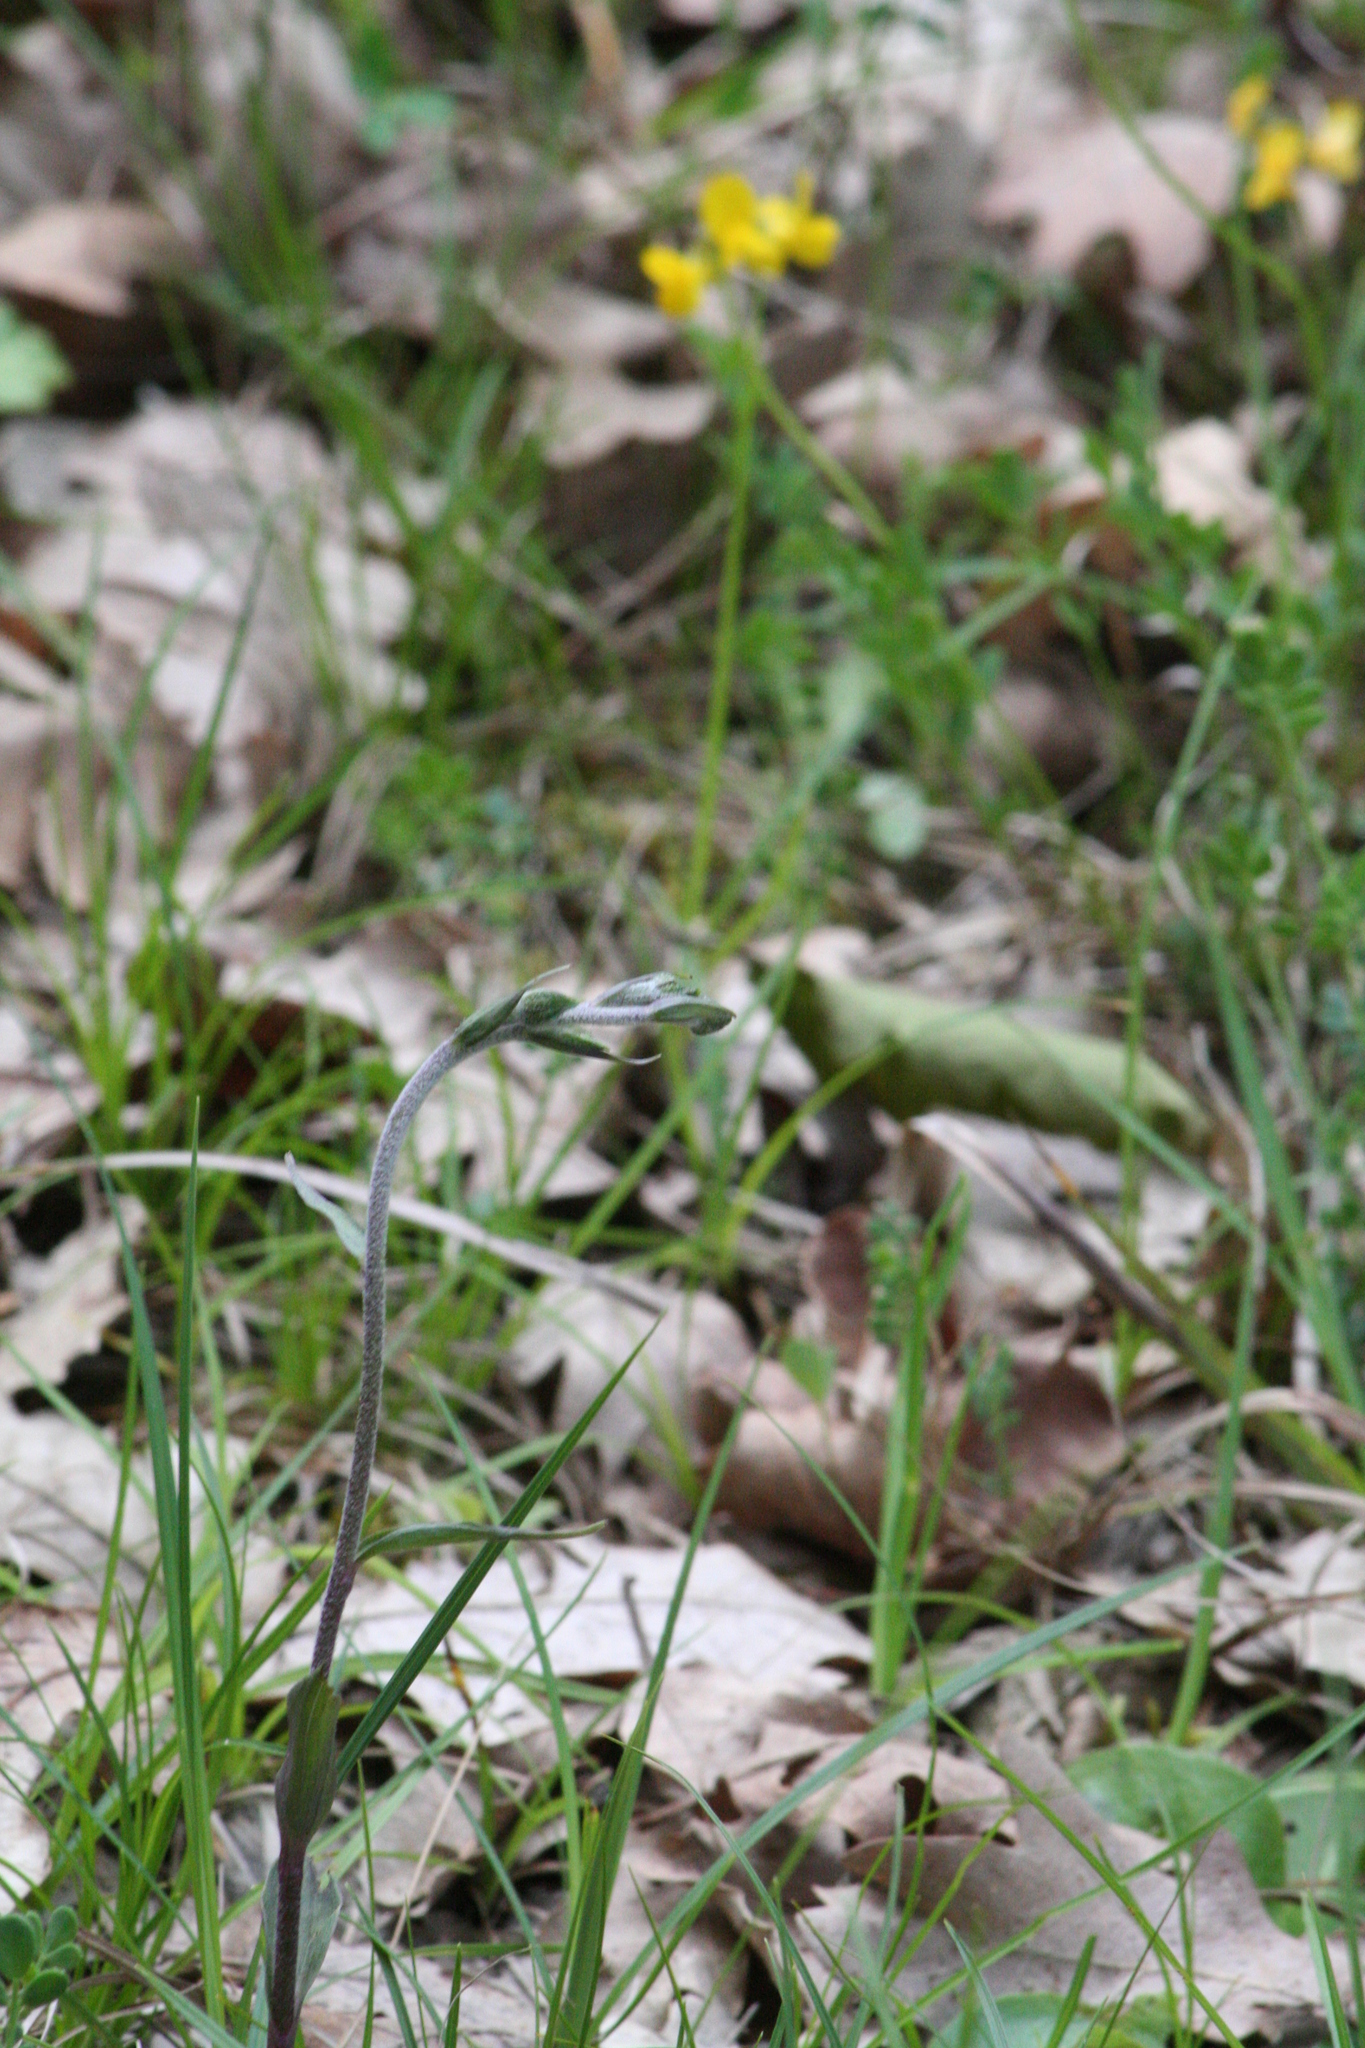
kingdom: Plantae
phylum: Tracheophyta
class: Liliopsida
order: Asparagales
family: Orchidaceae
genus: Epipactis
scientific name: Epipactis microphylla
